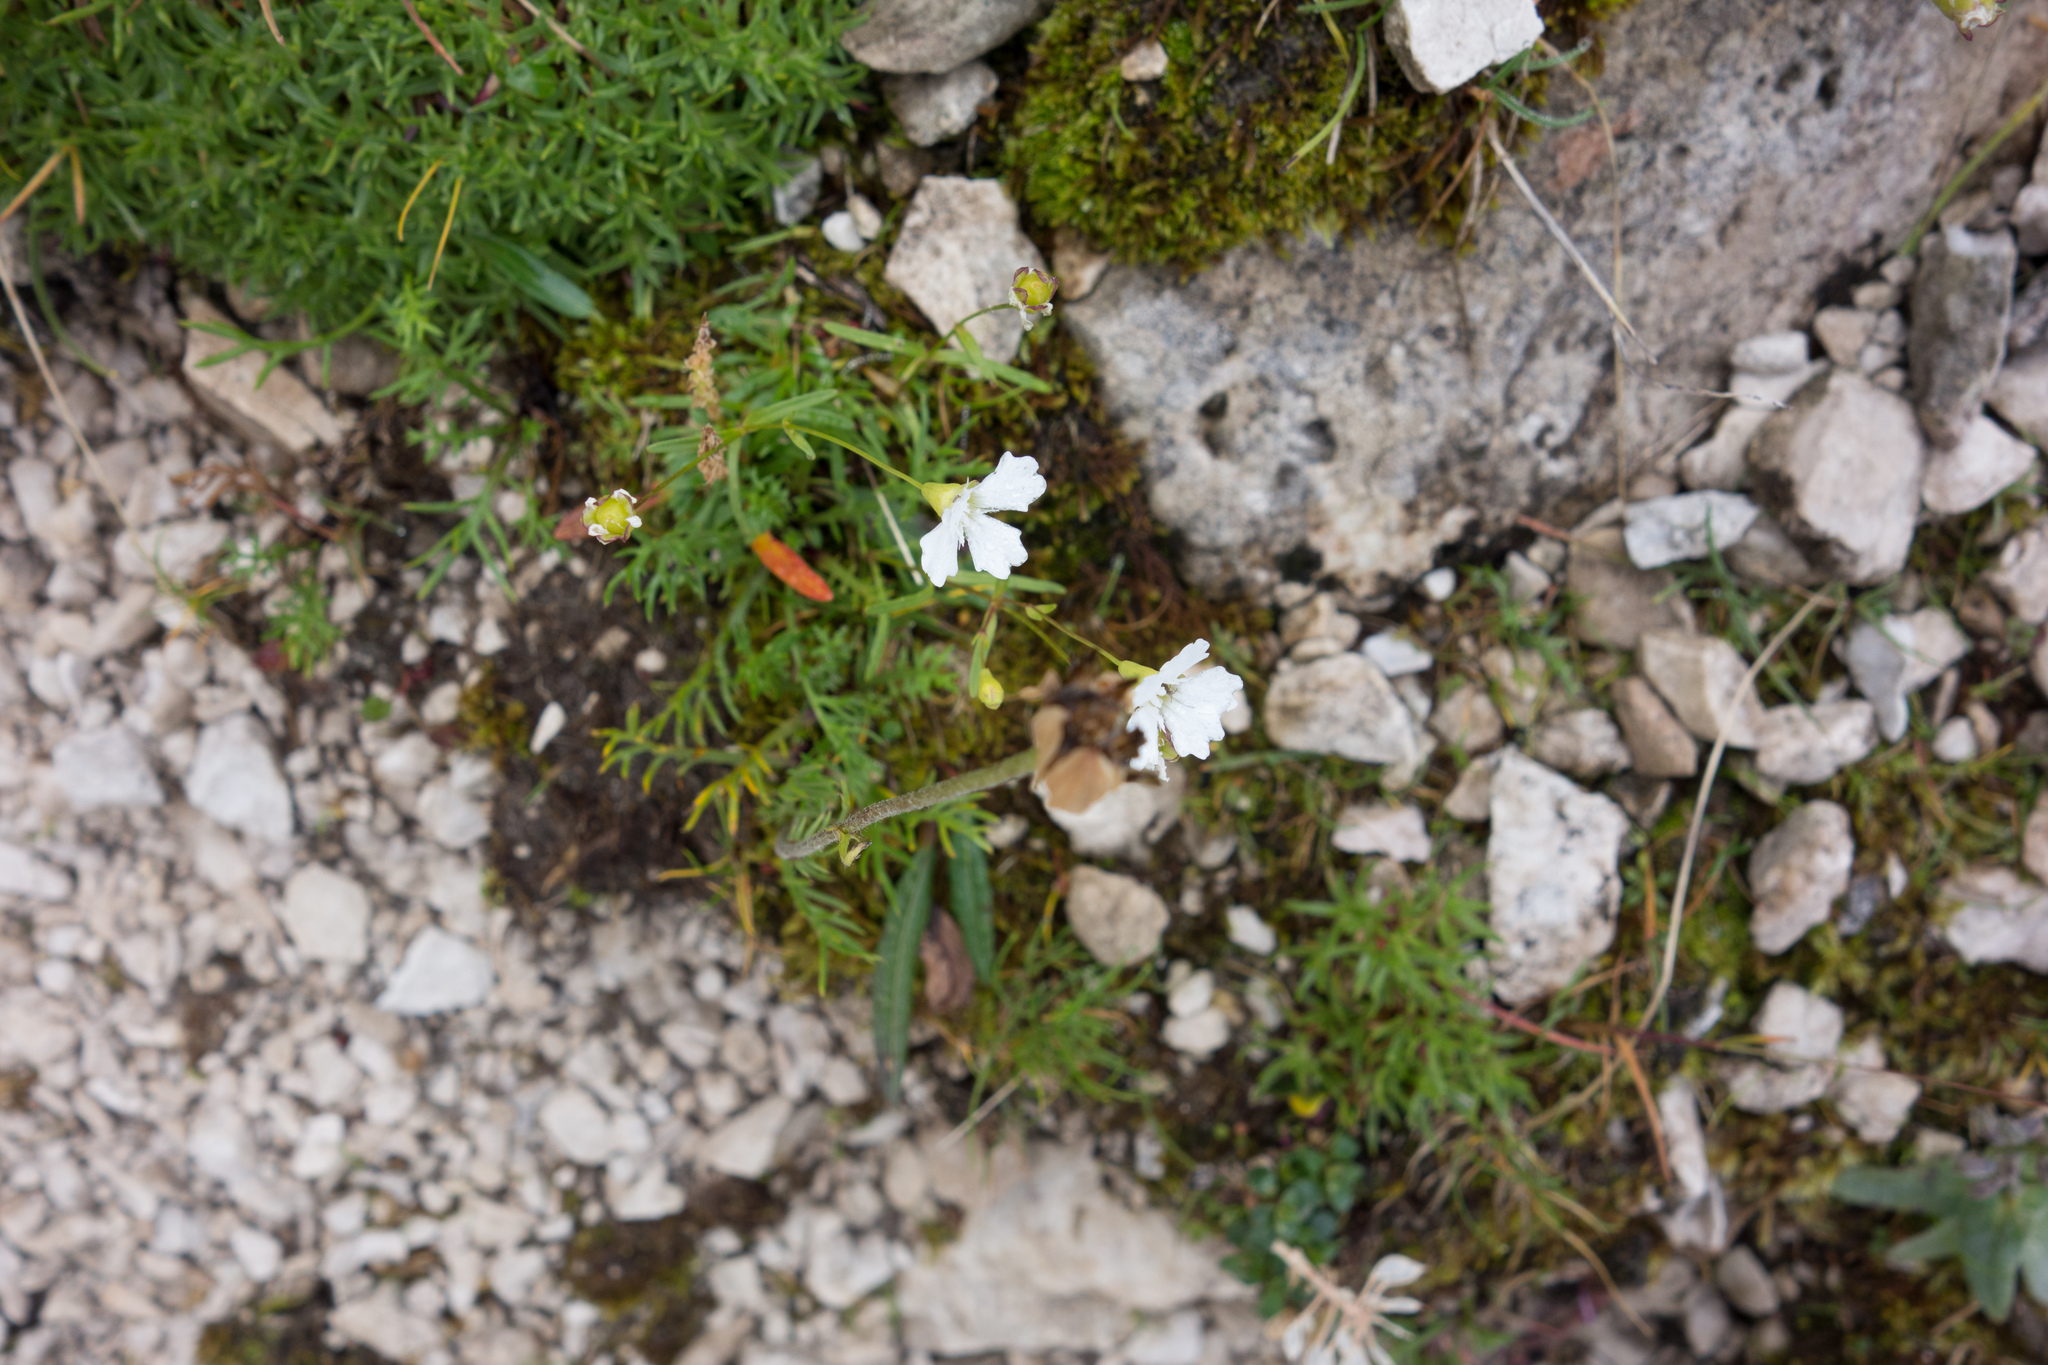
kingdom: Plantae
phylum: Tracheophyta
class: Magnoliopsida
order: Caryophyllales
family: Caryophyllaceae
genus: Heliosperma
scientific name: Heliosperma pusillum
